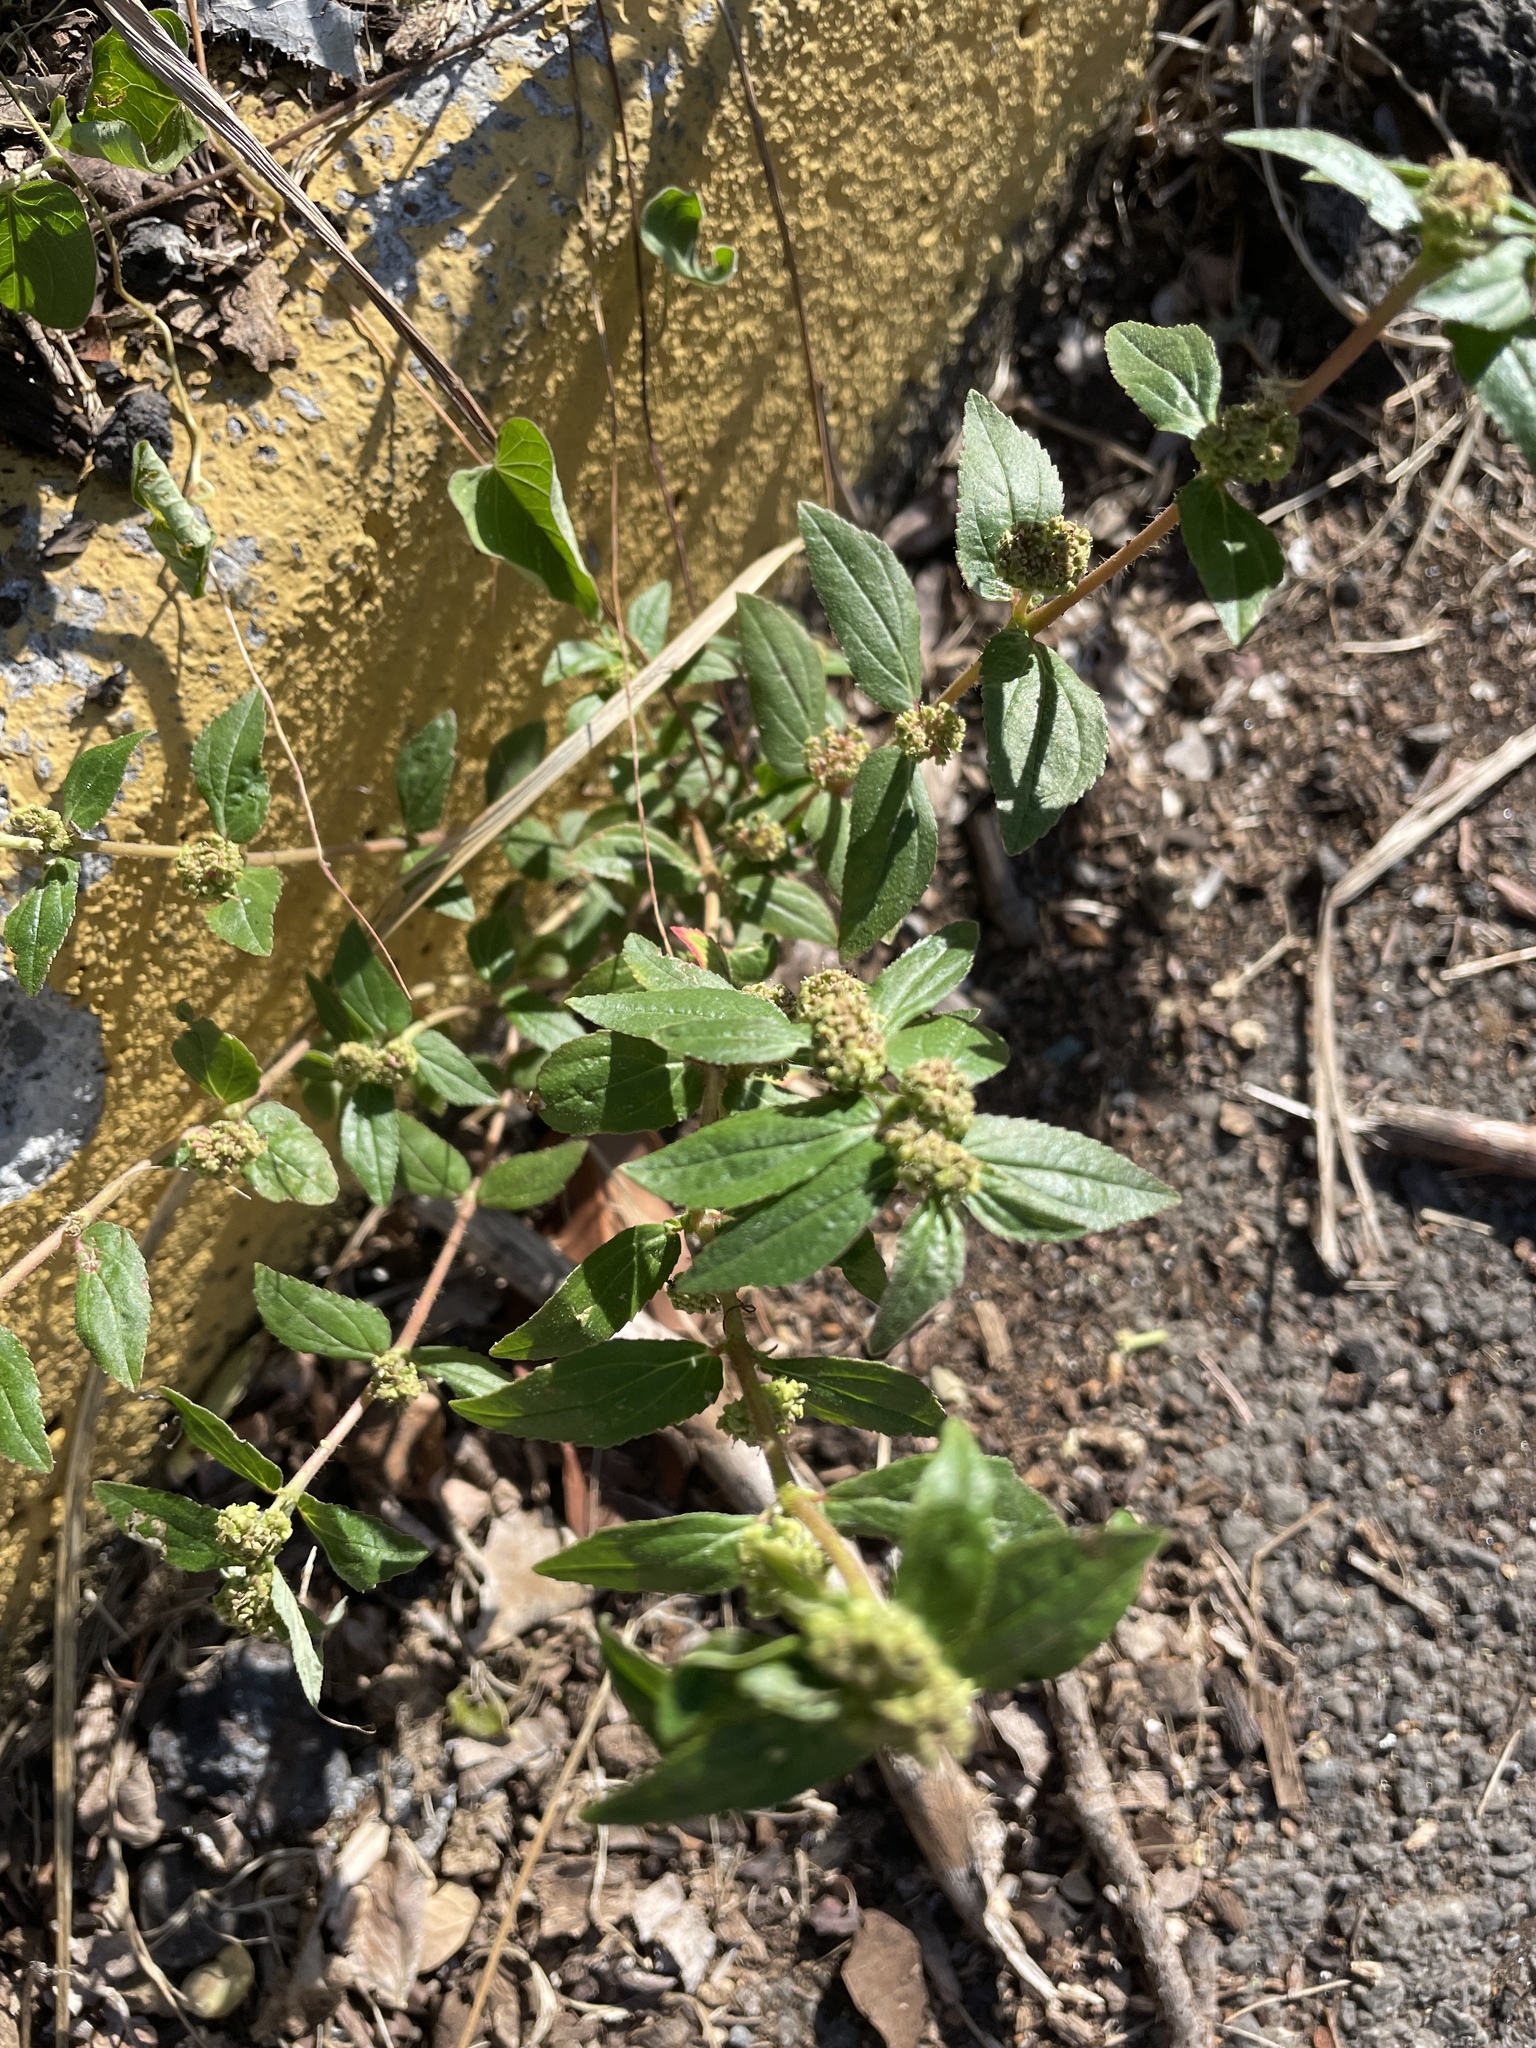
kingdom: Plantae
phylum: Tracheophyta
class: Magnoliopsida
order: Malpighiales
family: Euphorbiaceae
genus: Euphorbia
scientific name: Euphorbia hirta
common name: Pillpod sandmat
